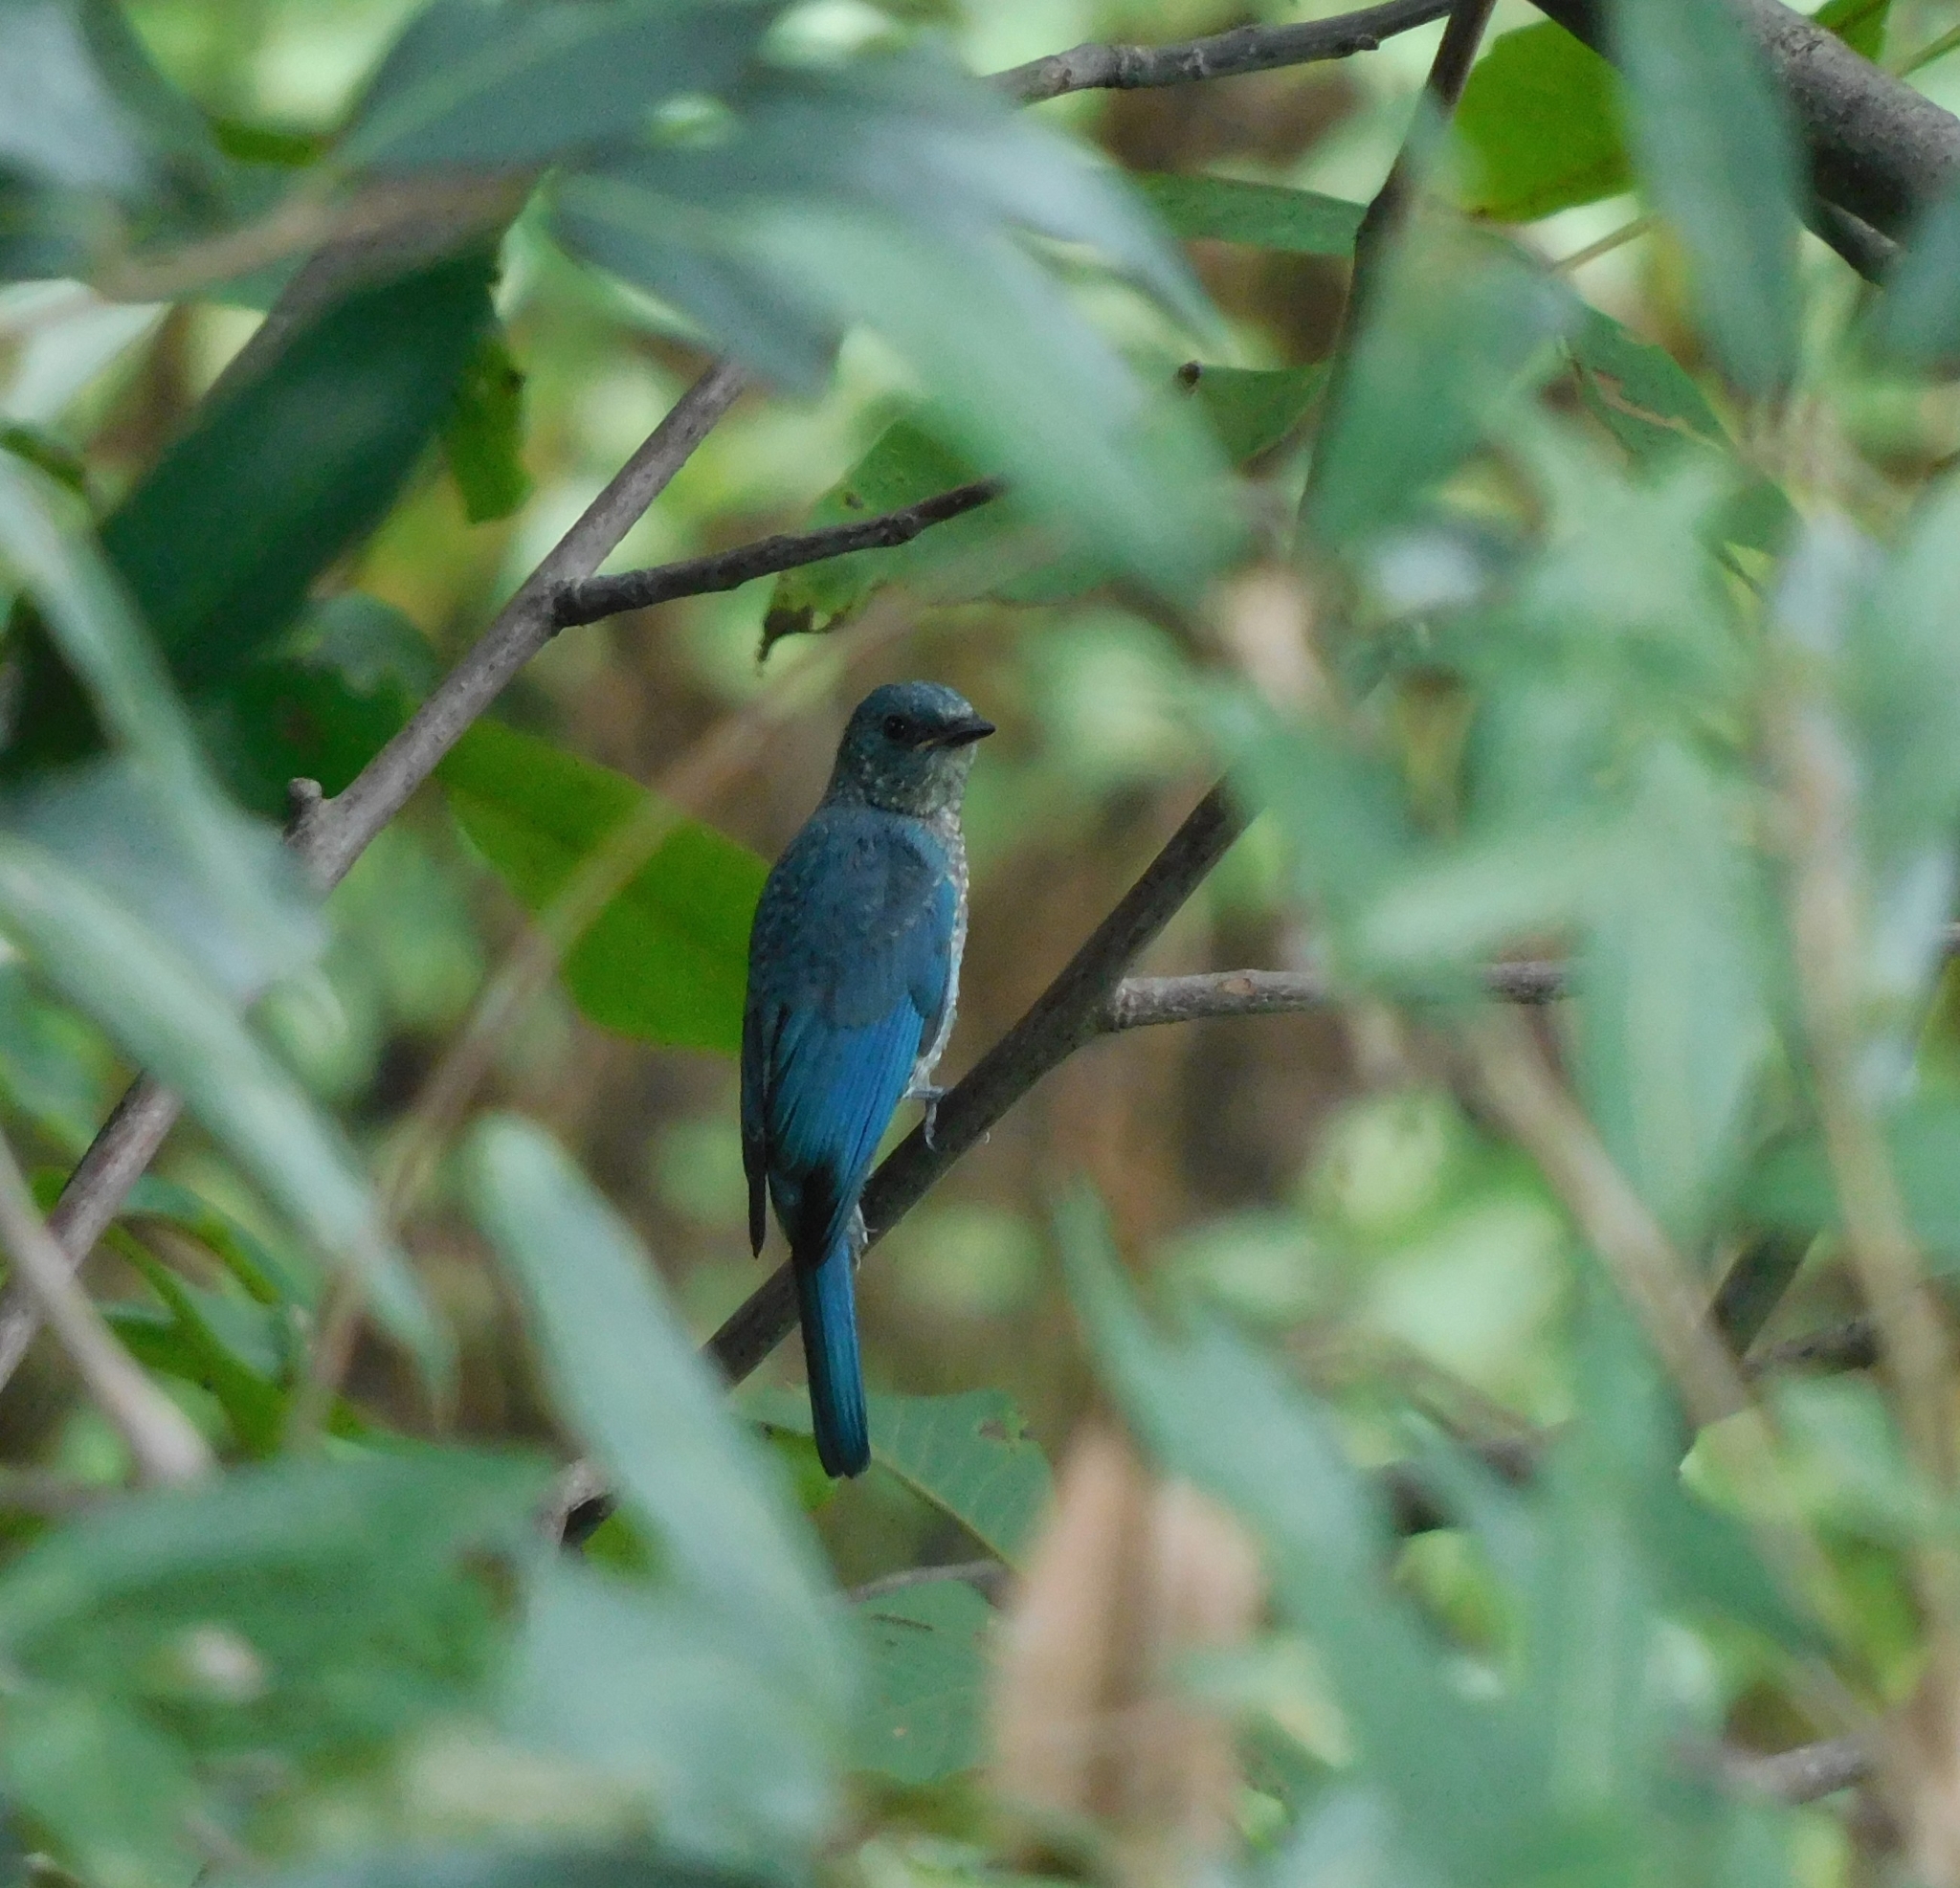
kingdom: Animalia
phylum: Chordata
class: Aves
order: Passeriformes
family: Muscicapidae
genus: Eumyias
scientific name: Eumyias thalassinus
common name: Verditer flycatcher
